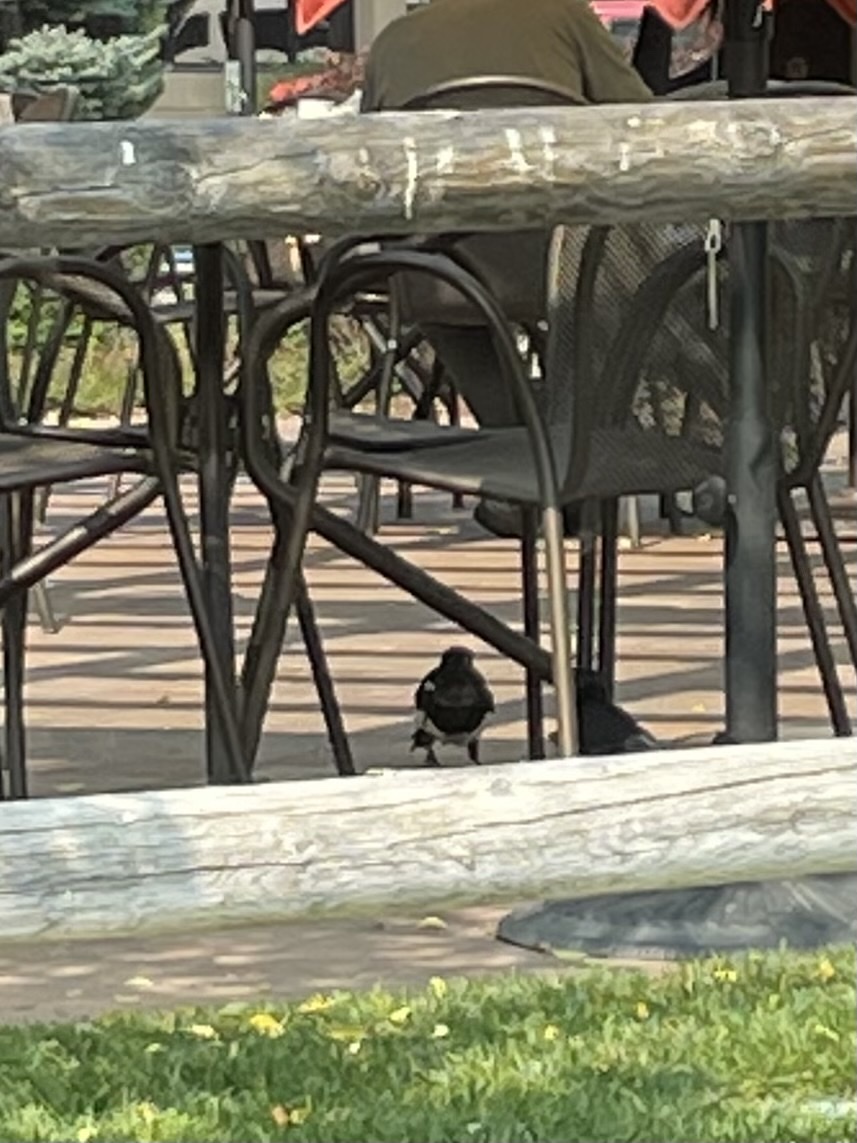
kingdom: Animalia
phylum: Chordata
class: Aves
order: Passeriformes
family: Corvidae
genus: Pica
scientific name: Pica hudsonia
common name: Black-billed magpie
